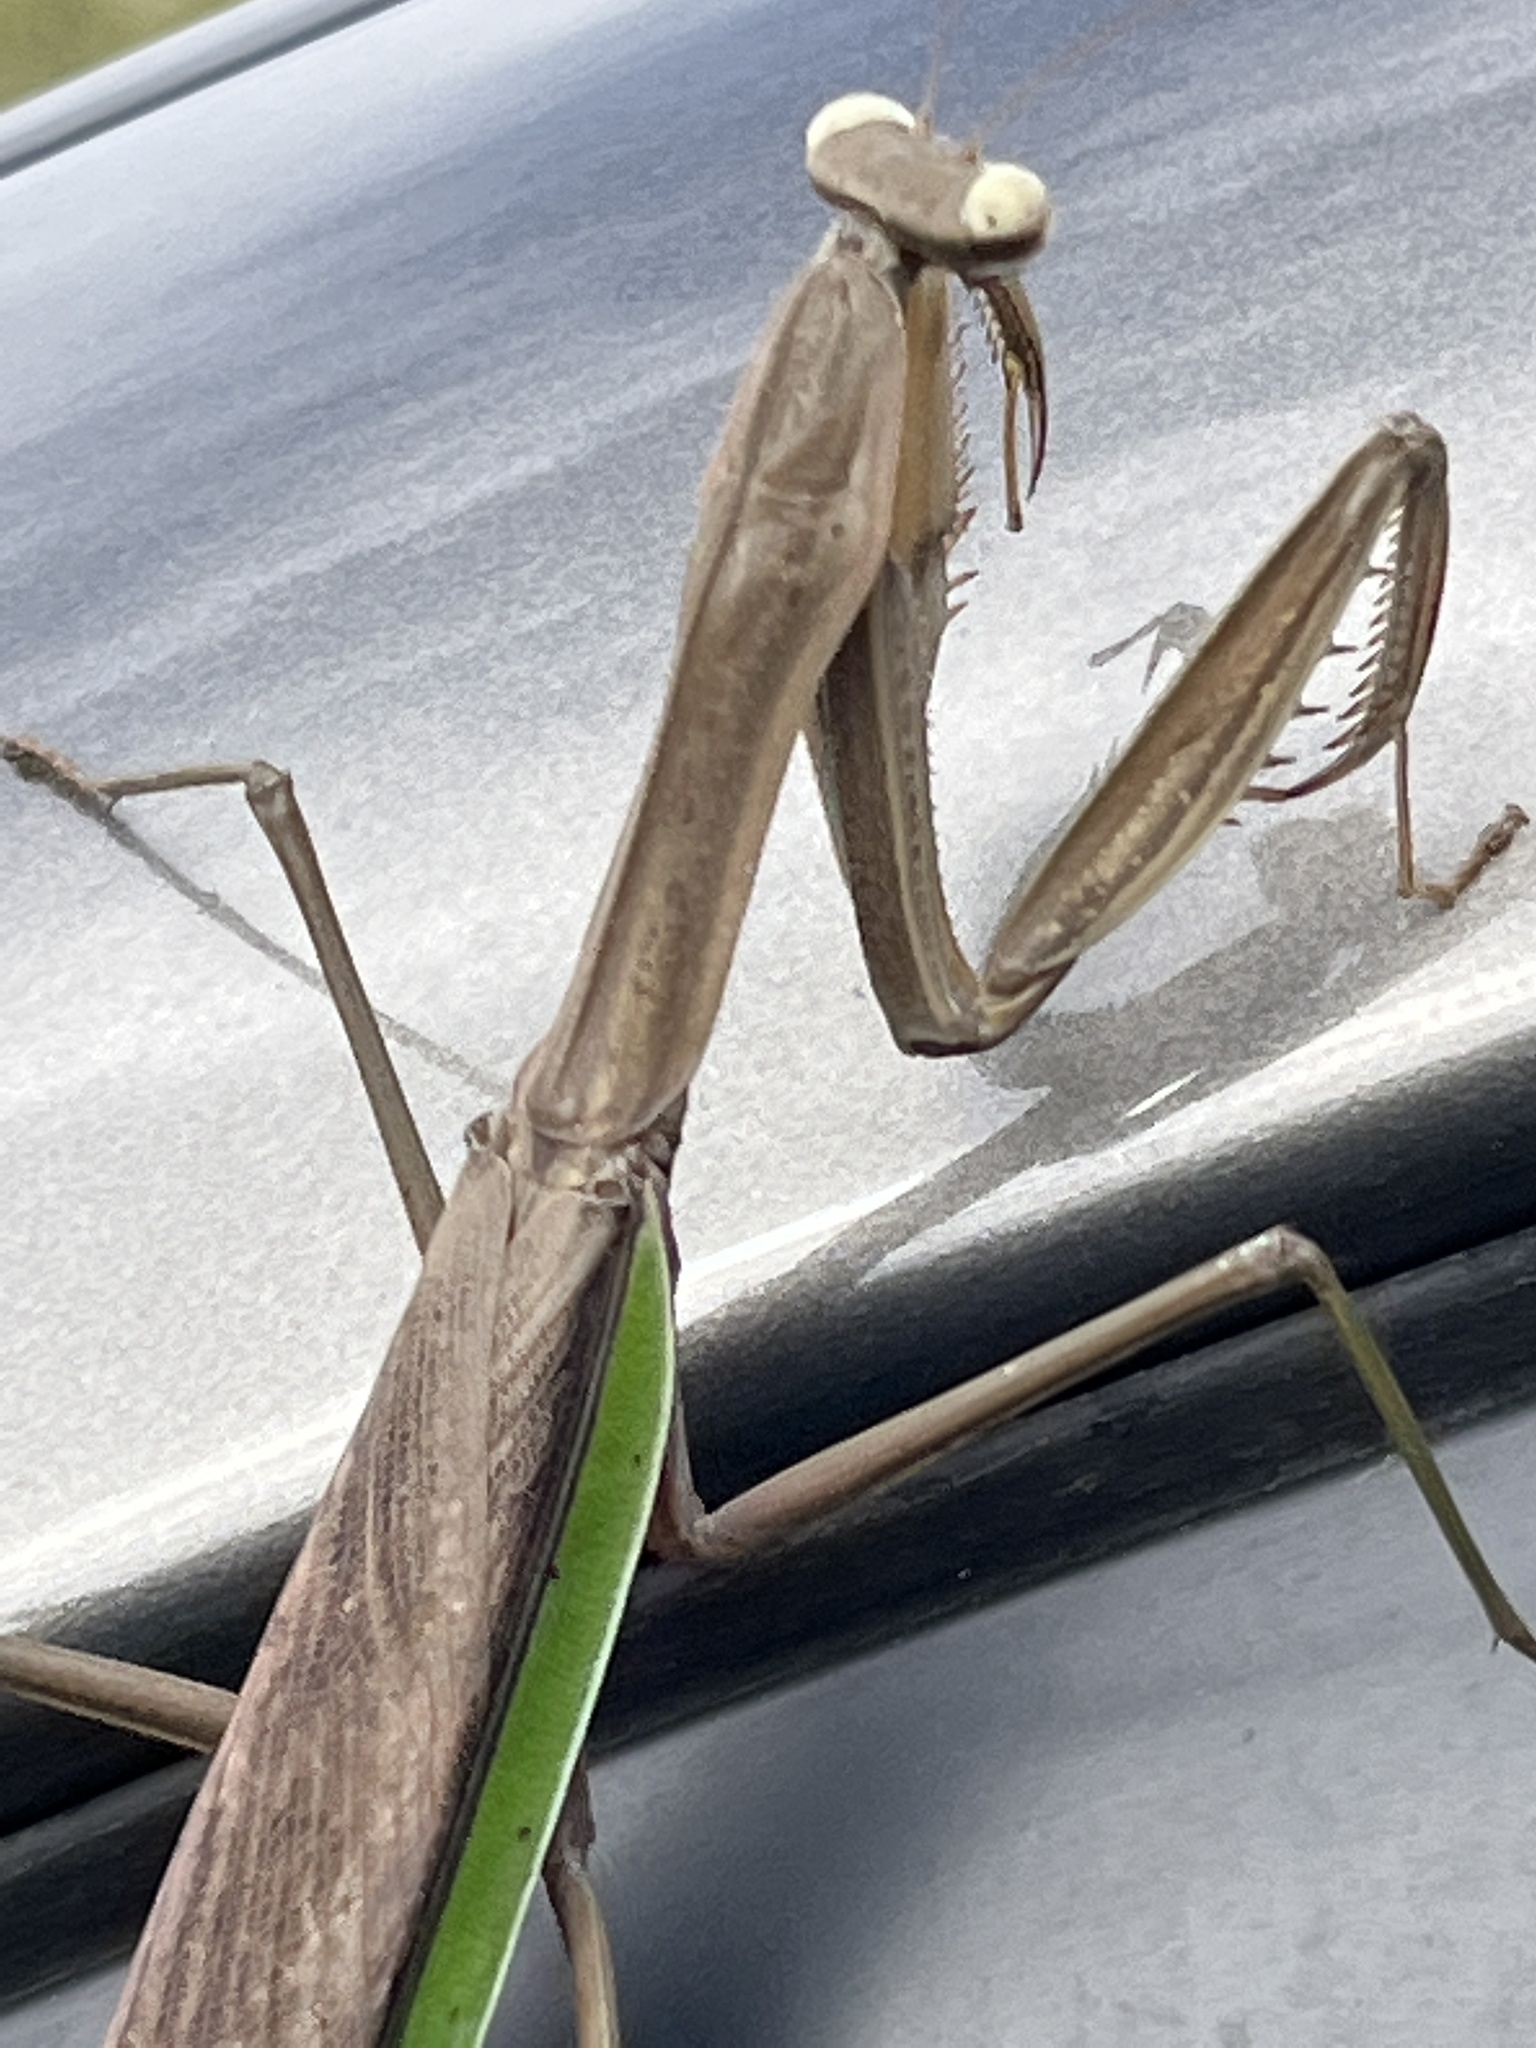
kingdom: Animalia
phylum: Arthropoda
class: Insecta
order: Mantodea
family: Mantidae
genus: Tenodera
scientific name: Tenodera sinensis
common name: Chinese mantis
